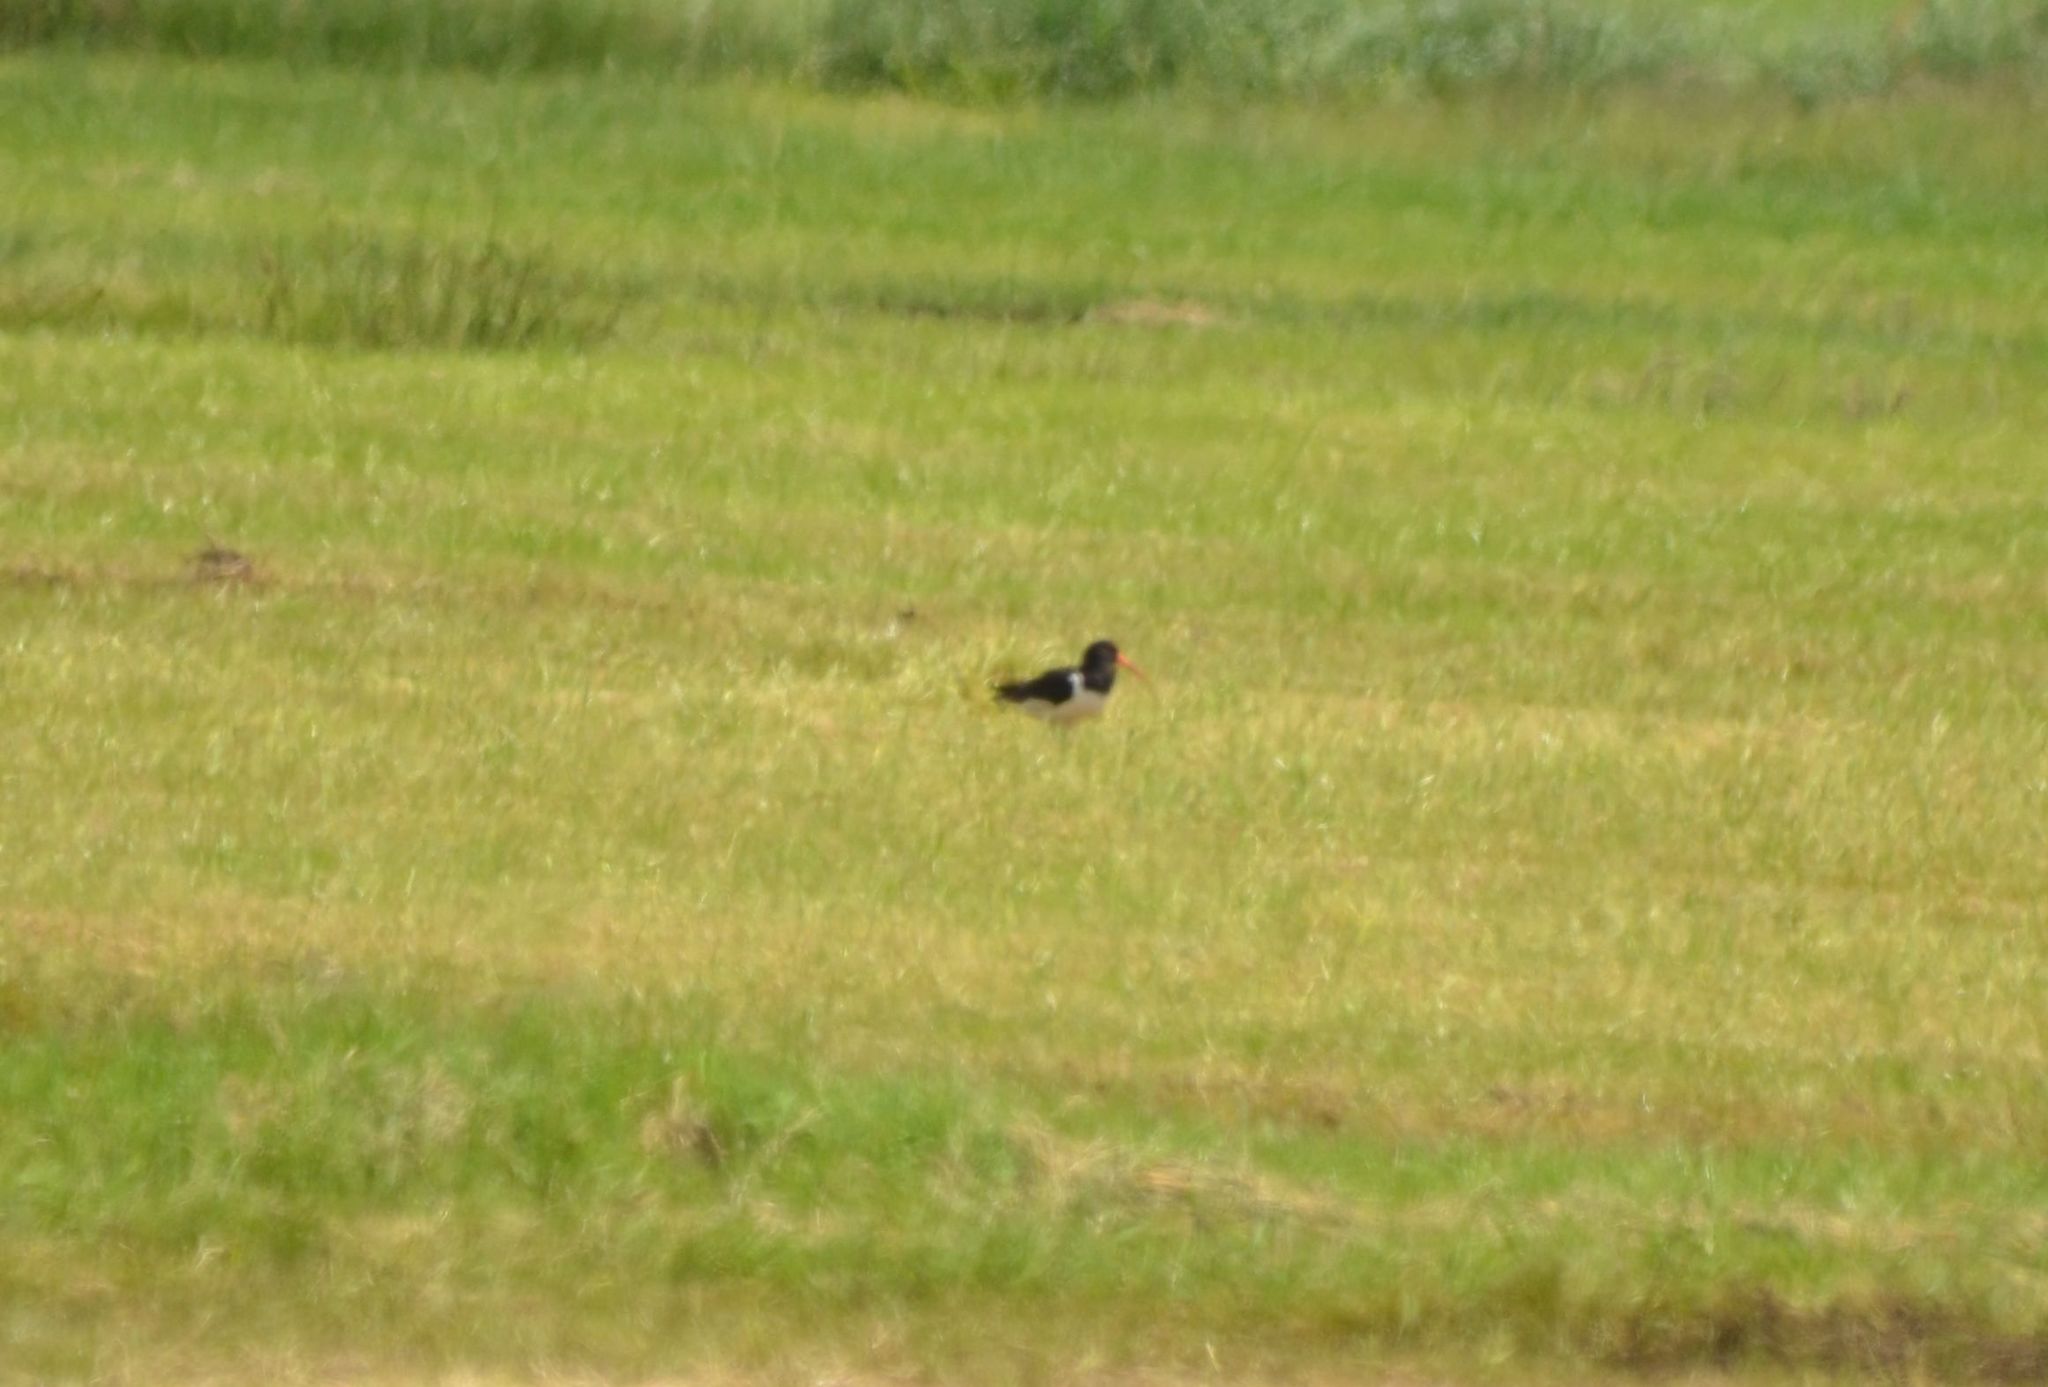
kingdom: Animalia
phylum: Chordata
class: Aves
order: Charadriiformes
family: Haematopodidae
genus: Haematopus
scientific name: Haematopus ostralegus
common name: Eurasian oystercatcher
